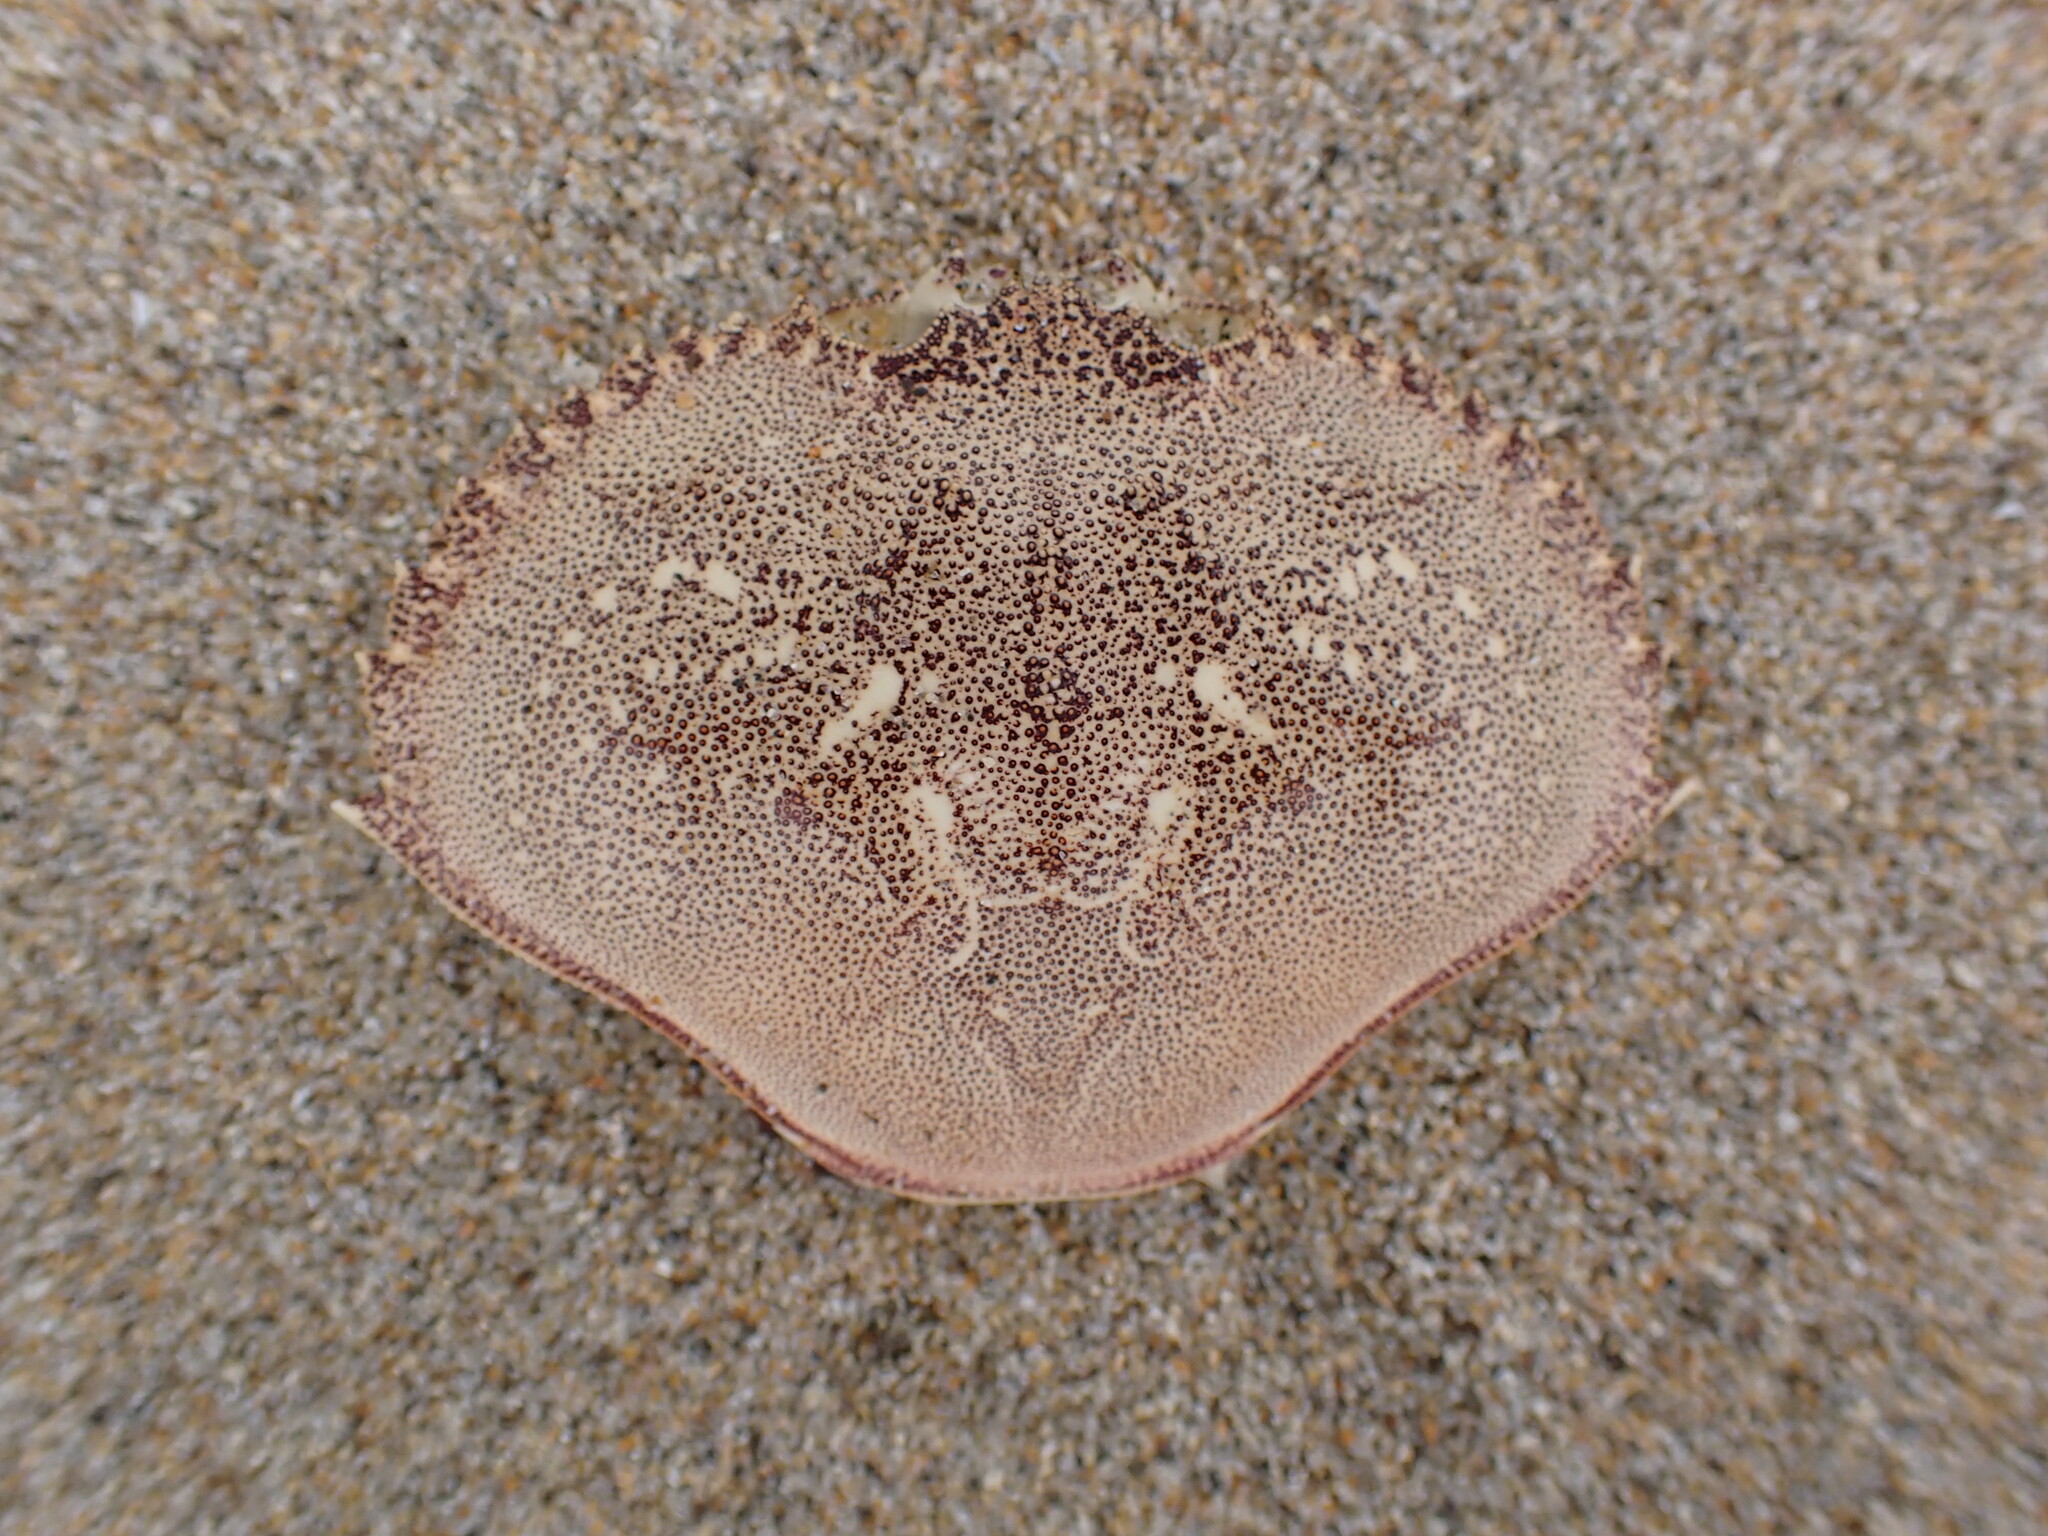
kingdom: Animalia
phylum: Arthropoda
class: Malacostraca
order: Decapoda
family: Cancridae
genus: Metacarcinus
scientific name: Metacarcinus magister
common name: Californian crab
